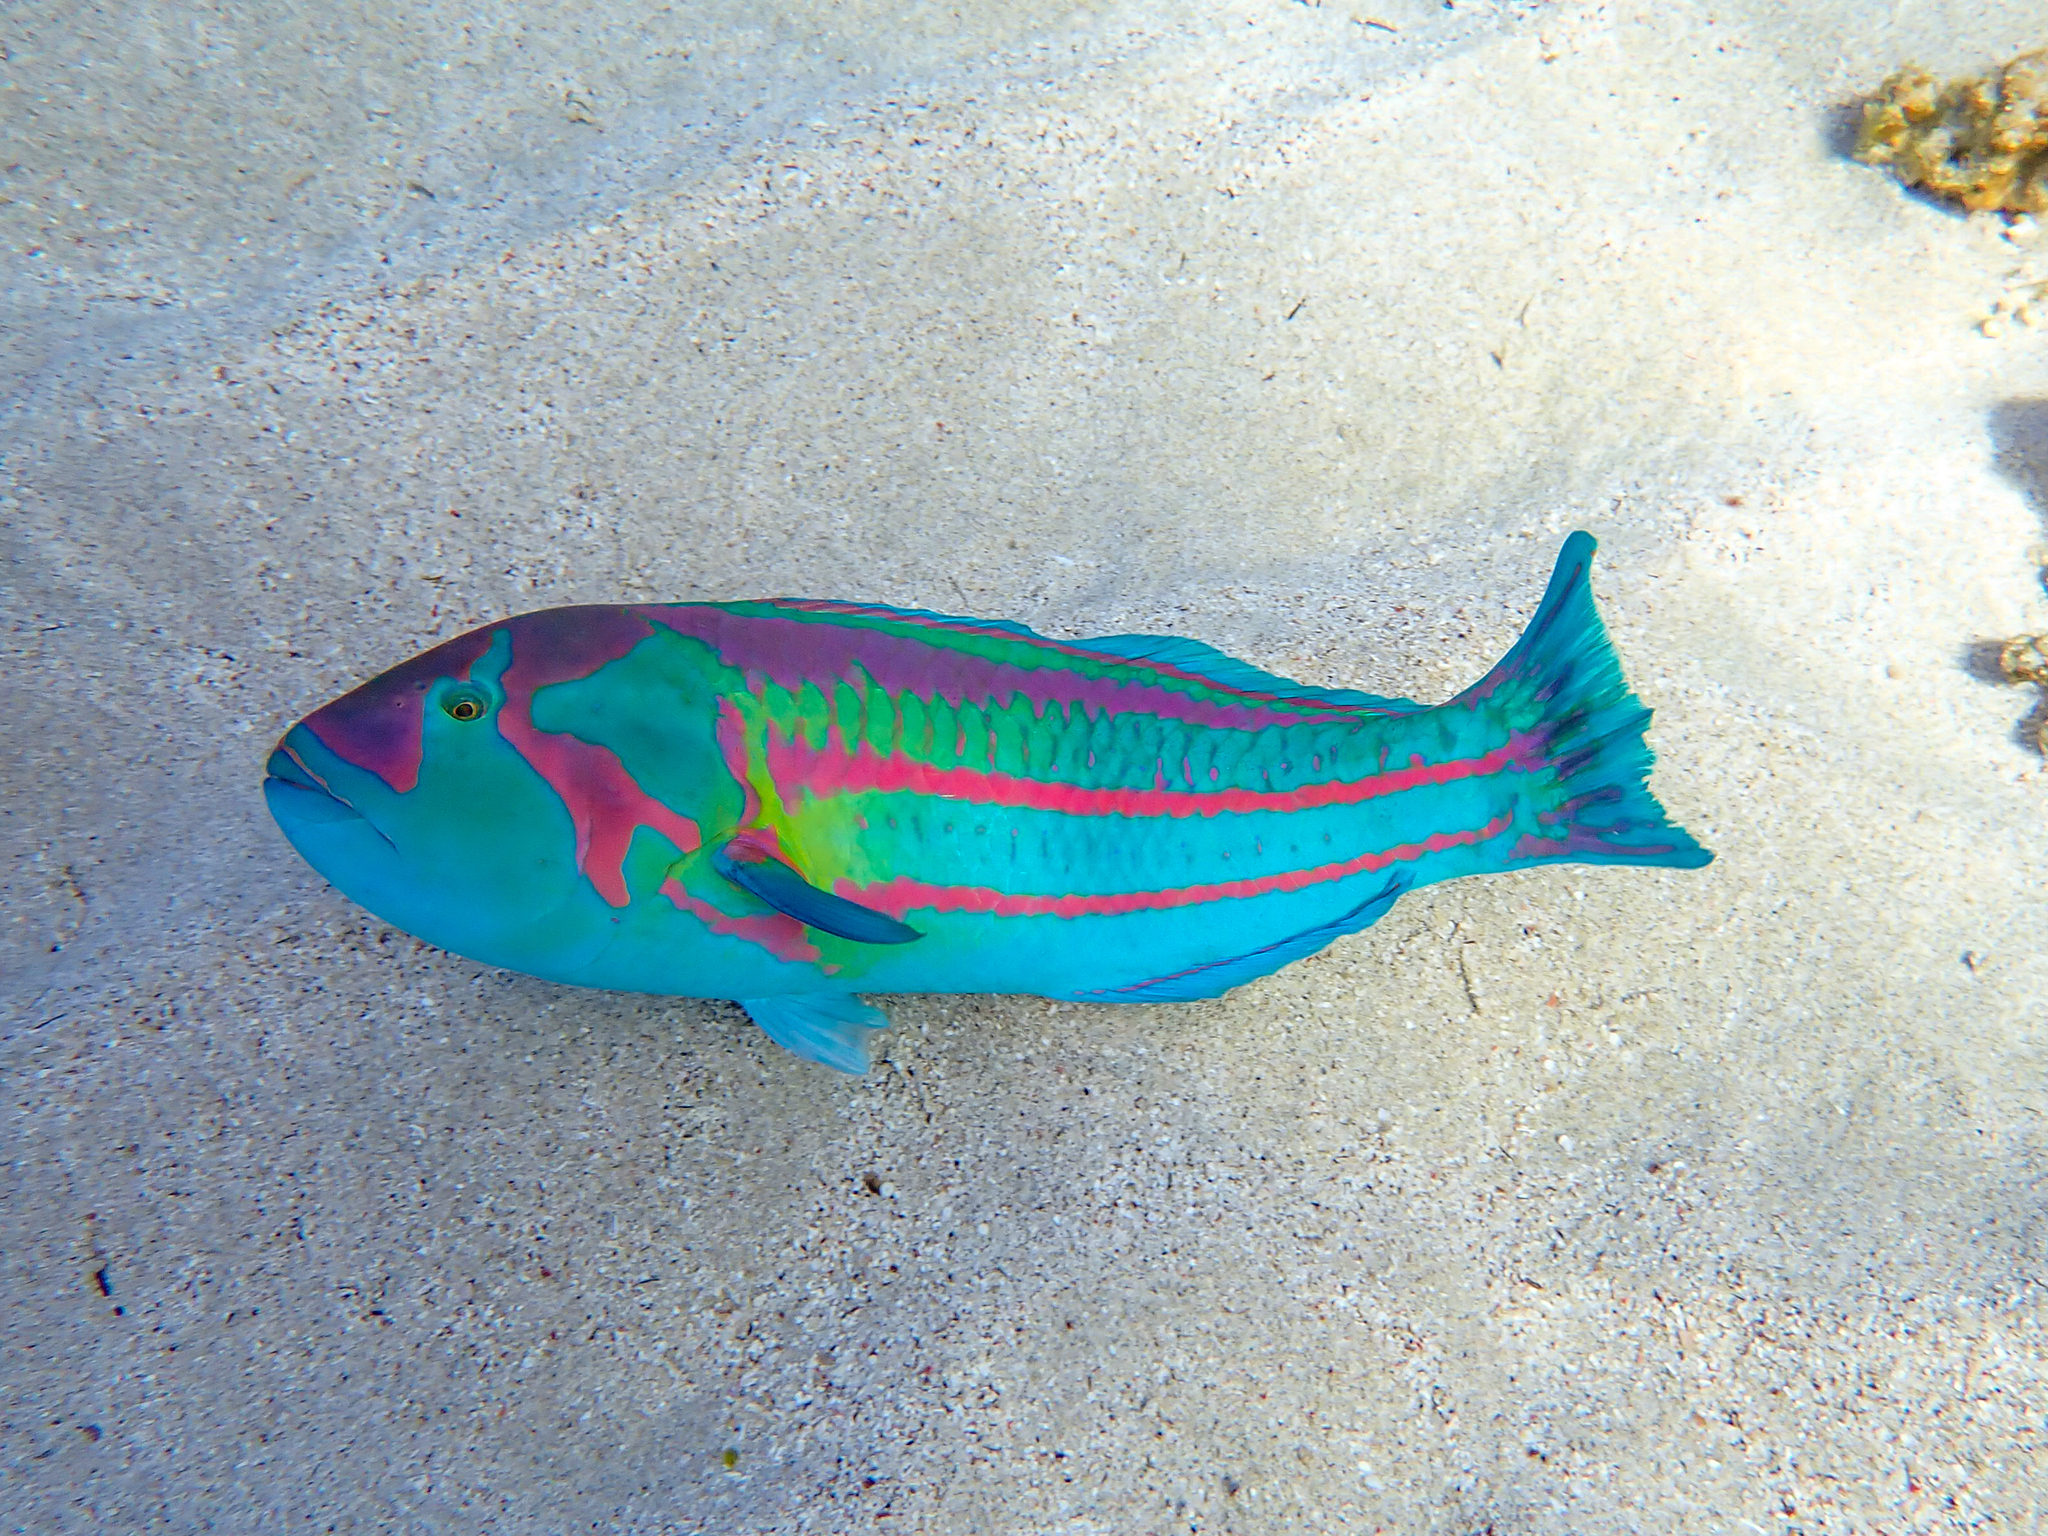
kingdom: Animalia
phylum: Chordata
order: Perciformes
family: Labridae
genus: Thalassoma
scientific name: Thalassoma purpureum
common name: Parrotfish
